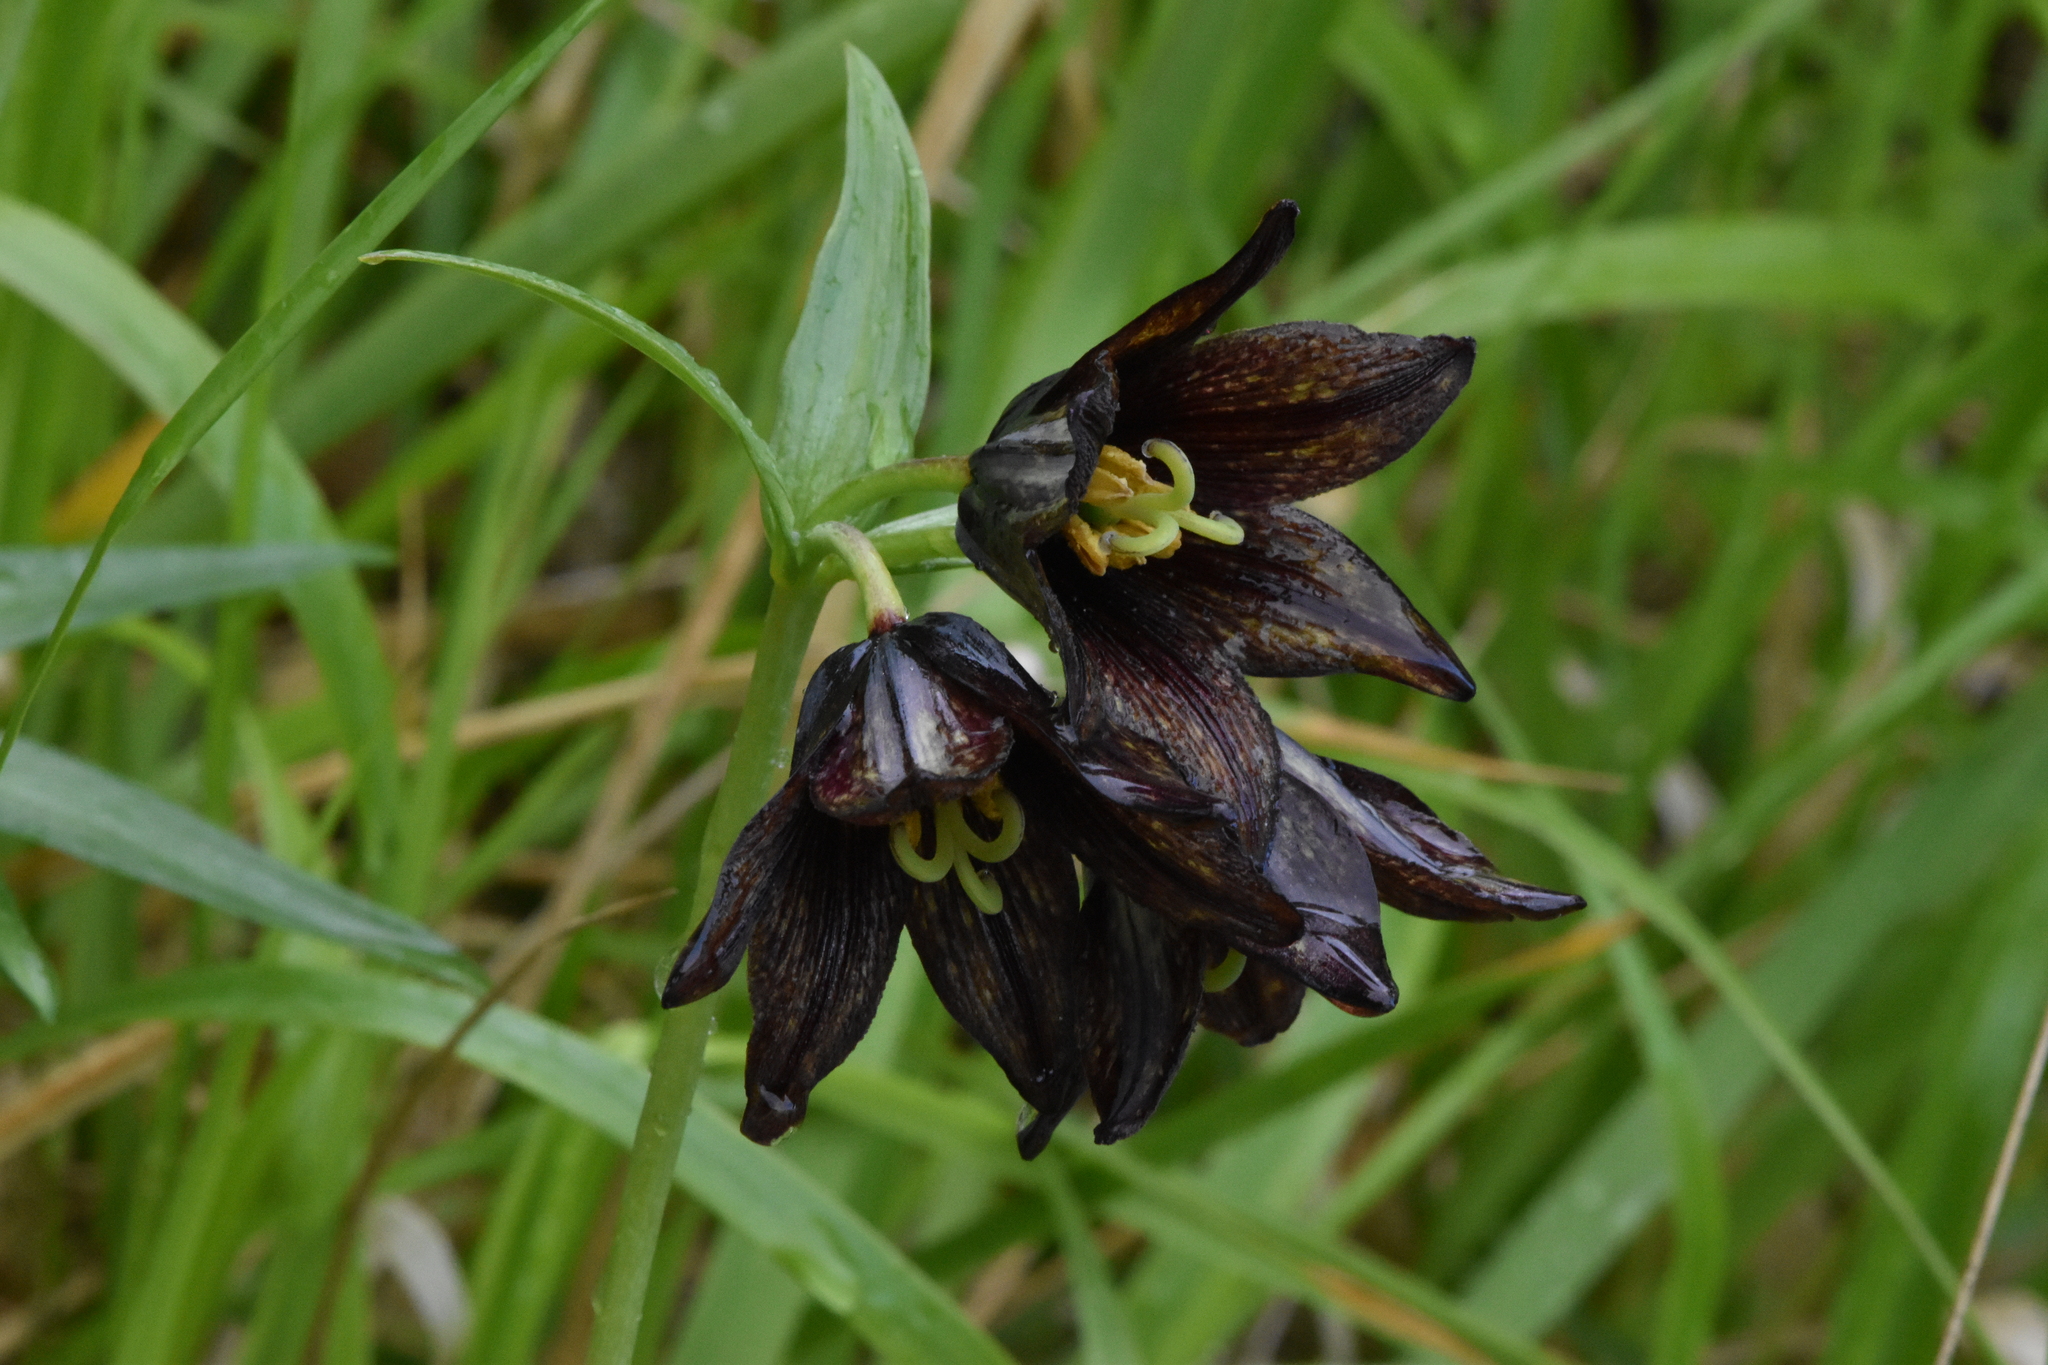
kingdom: Plantae
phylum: Tracheophyta
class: Liliopsida
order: Liliales
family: Liliaceae
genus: Fritillaria
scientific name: Fritillaria camschatcensis
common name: Kamchatka fritillary
